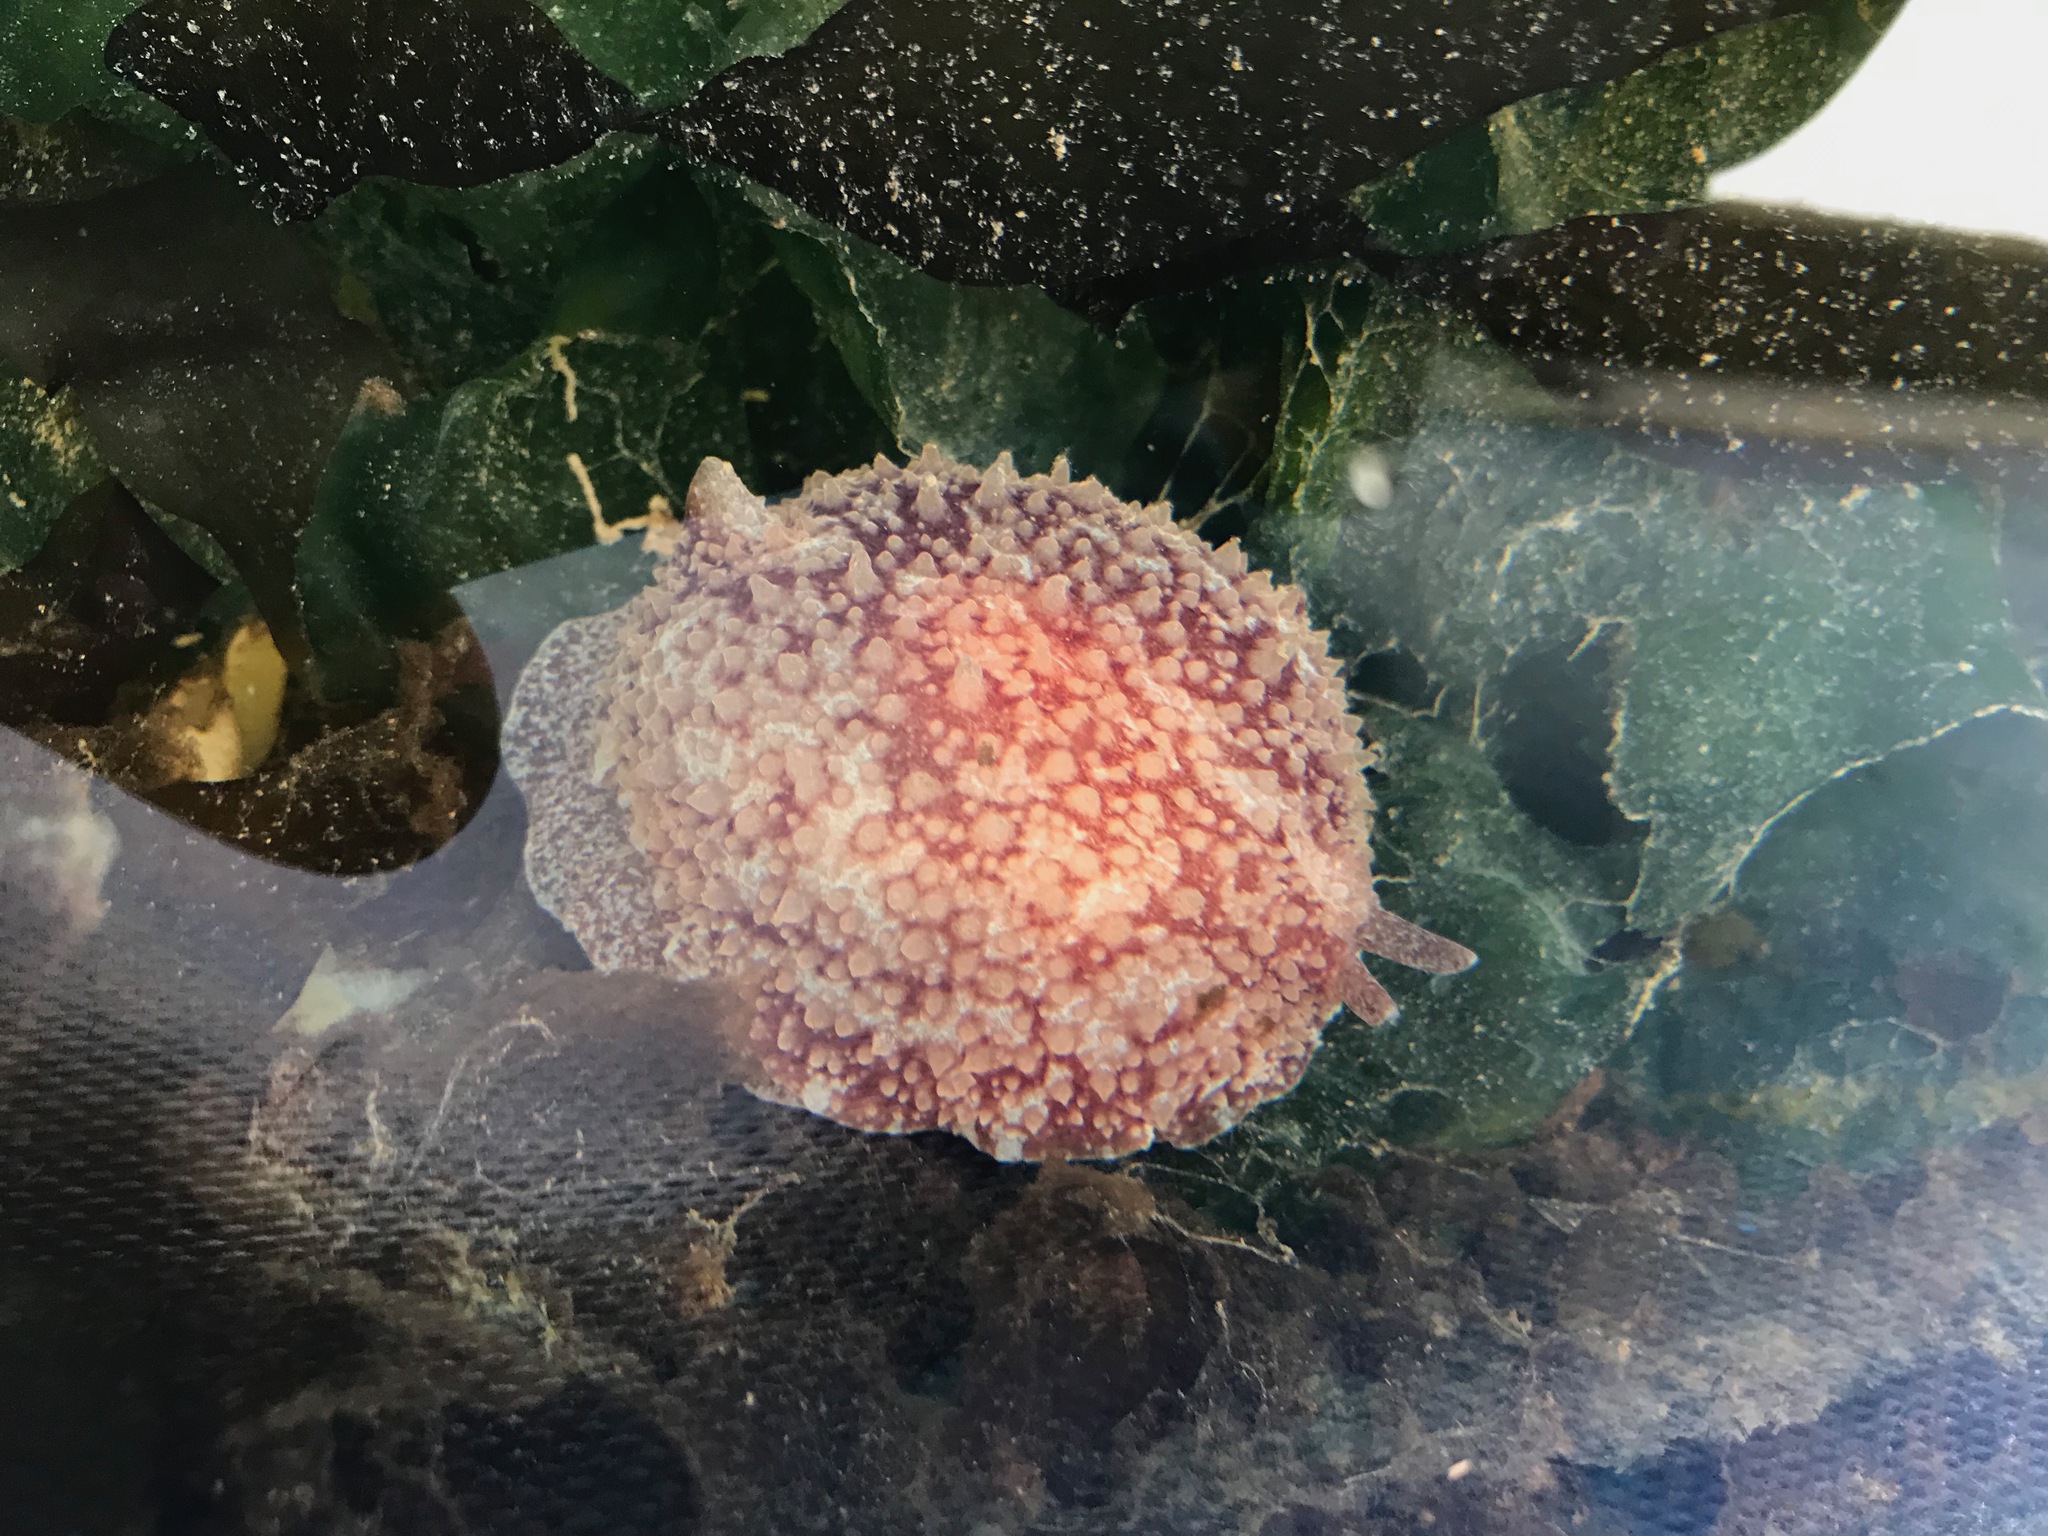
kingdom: Animalia
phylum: Mollusca
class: Gastropoda
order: Pleurobranchida
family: Pleurobranchidae
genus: Pleurobranchus
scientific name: Pleurobranchus membranaceus
